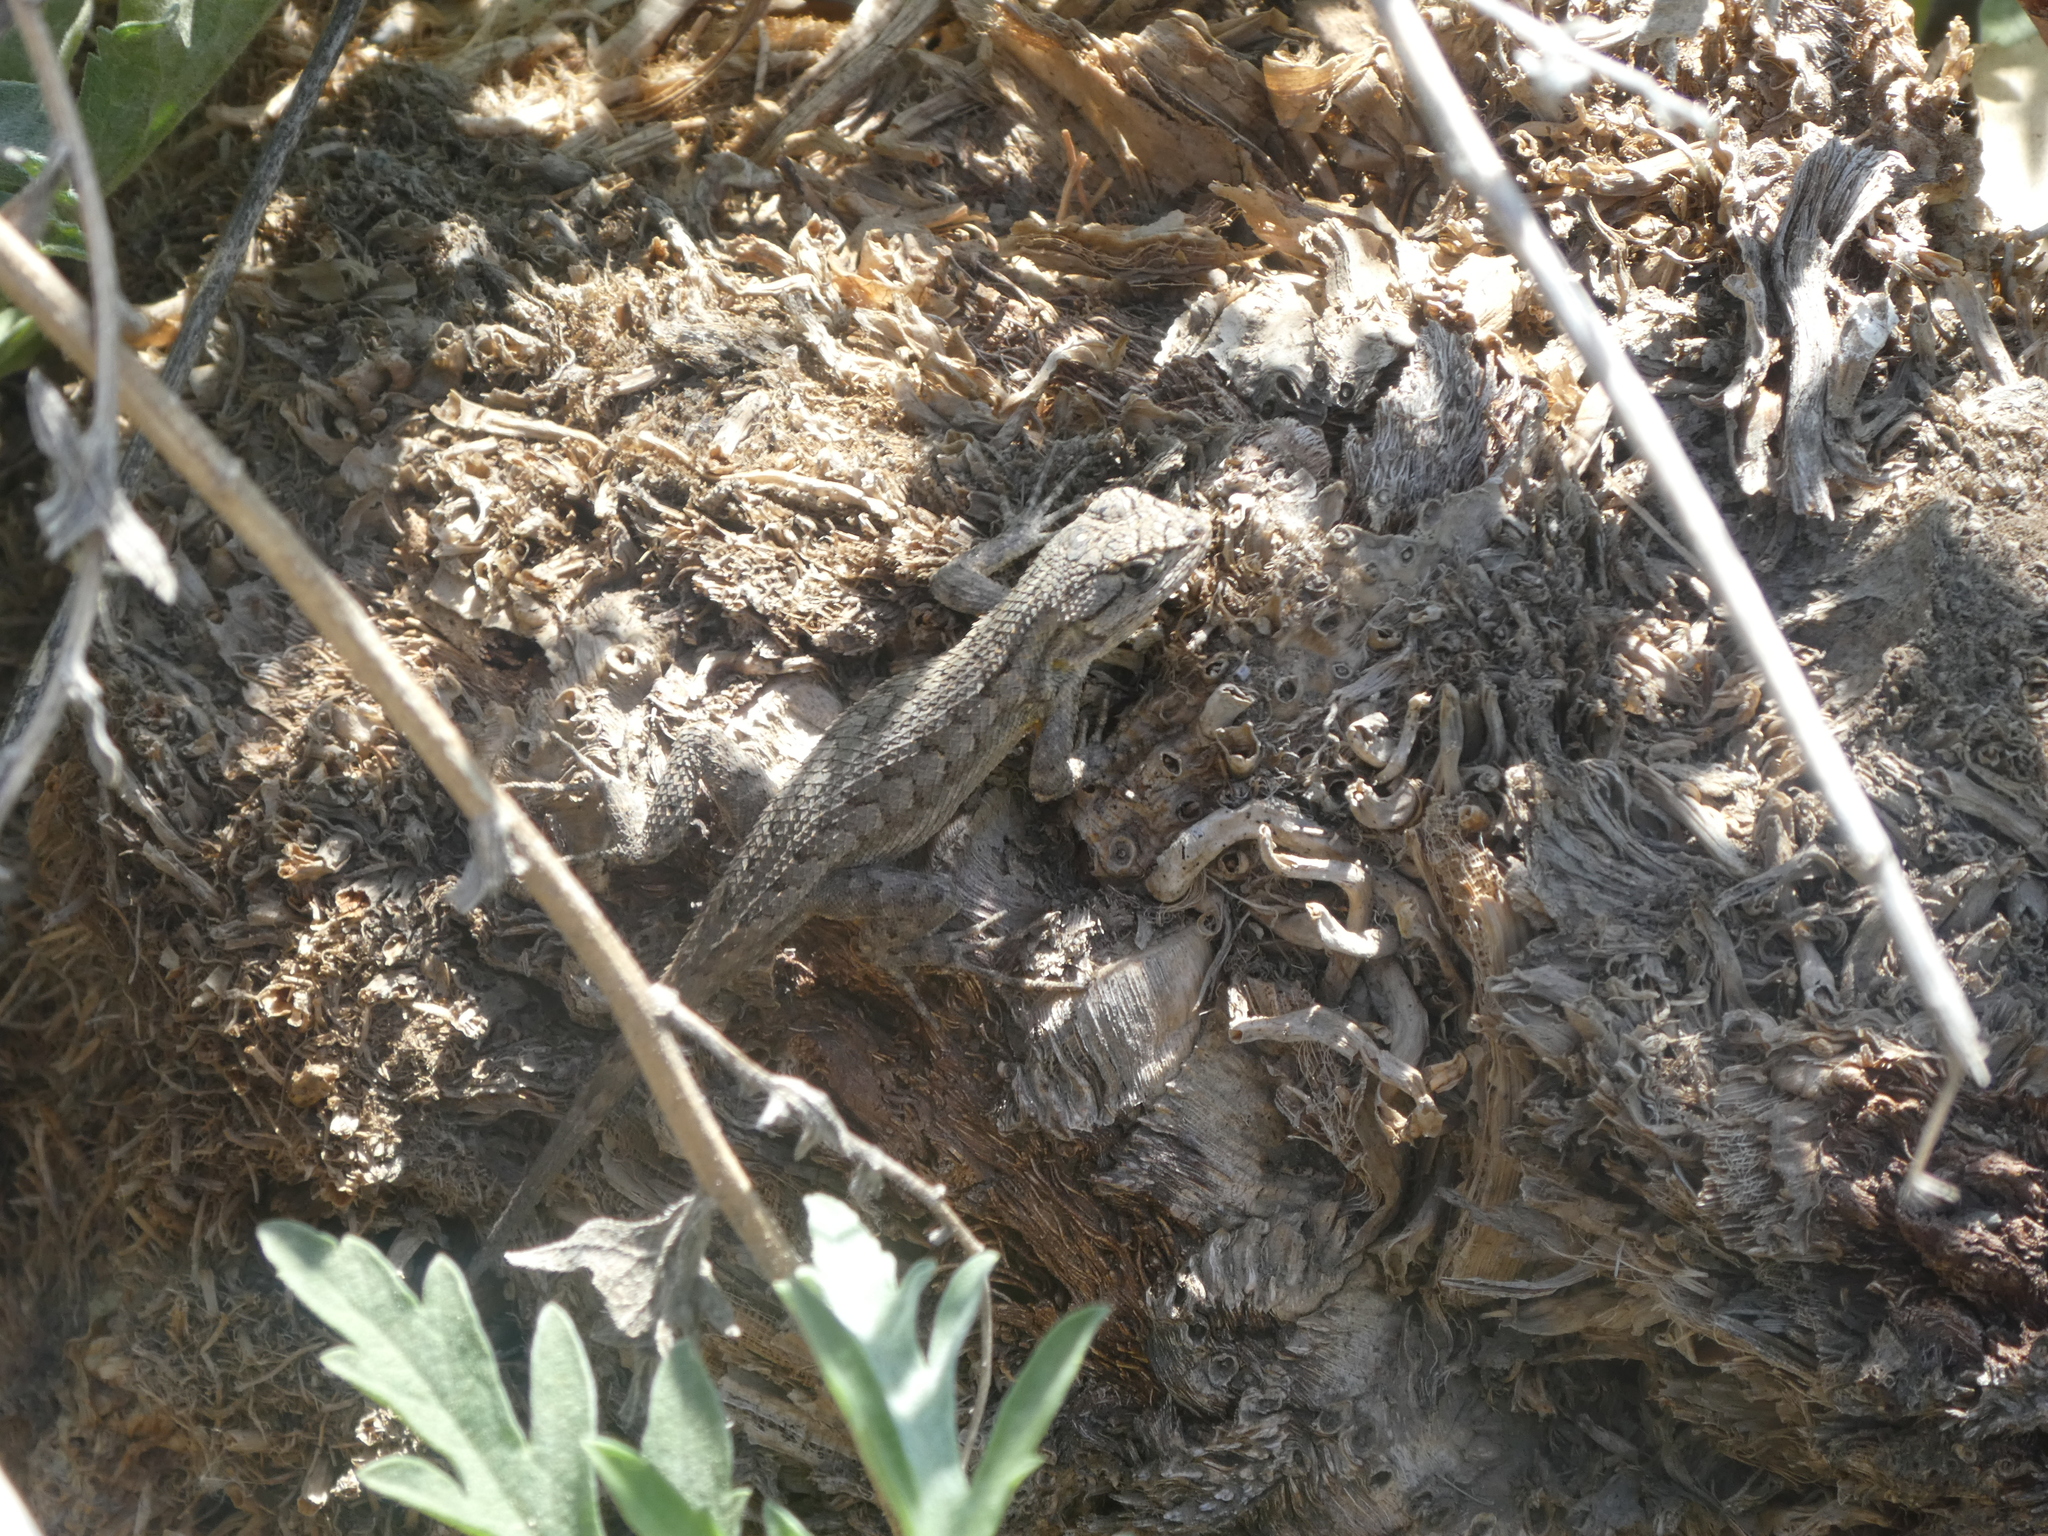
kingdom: Animalia
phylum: Chordata
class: Squamata
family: Phrynosomatidae
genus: Sceloporus
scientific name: Sceloporus occidentalis
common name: Western fence lizard
